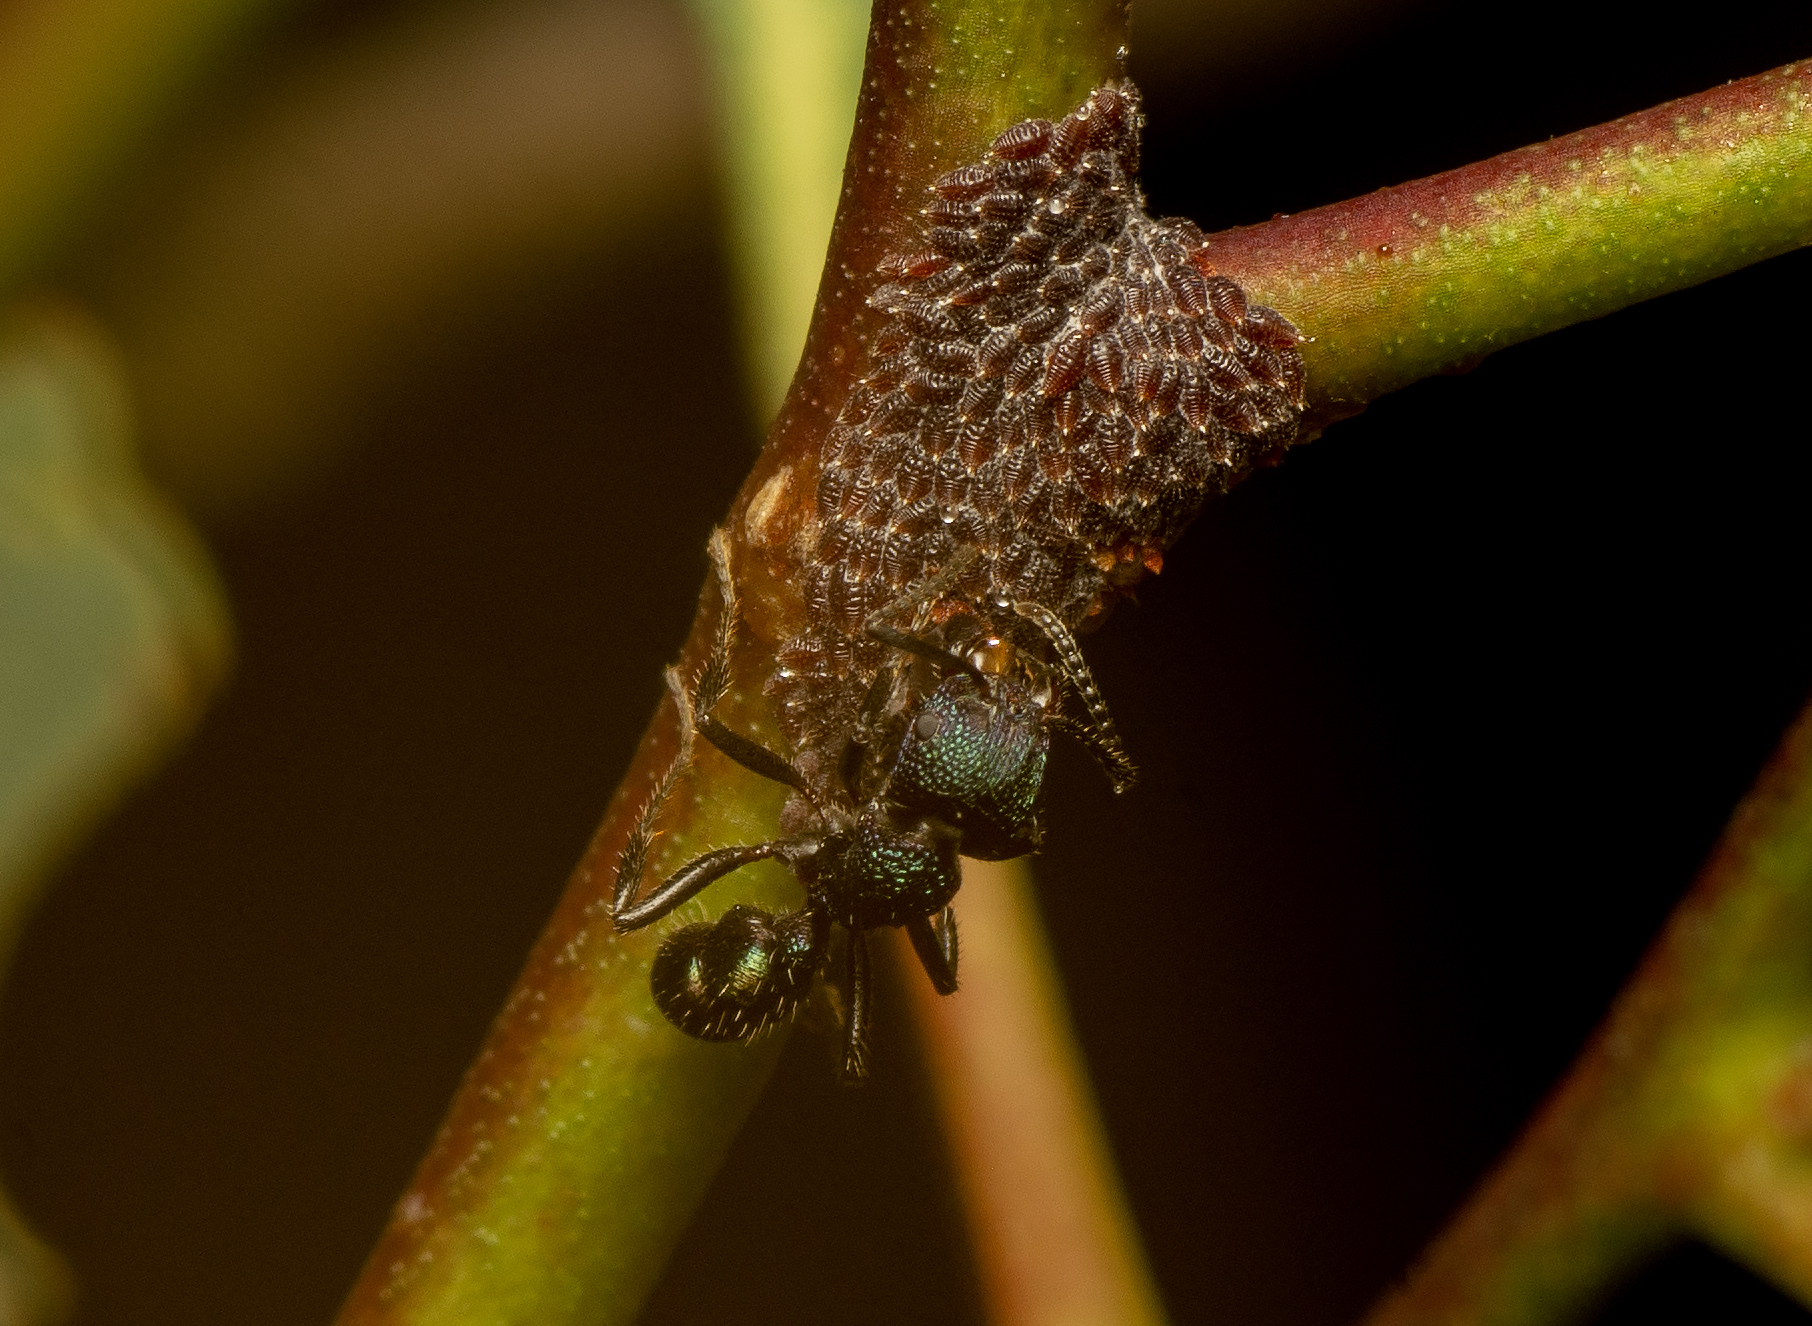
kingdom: Animalia
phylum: Arthropoda
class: Insecta
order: Hymenoptera
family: Formicidae
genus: Rhytidoponera
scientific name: Rhytidoponera metallica
